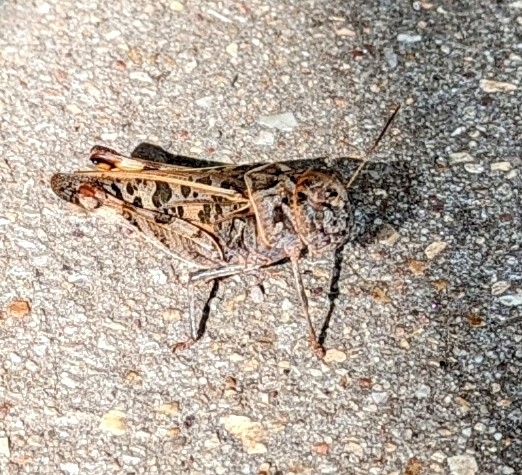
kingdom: Animalia
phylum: Arthropoda
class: Insecta
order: Orthoptera
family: Acrididae
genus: Hippiscus
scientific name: Hippiscus ocelote
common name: Wrinkled grasshopper
